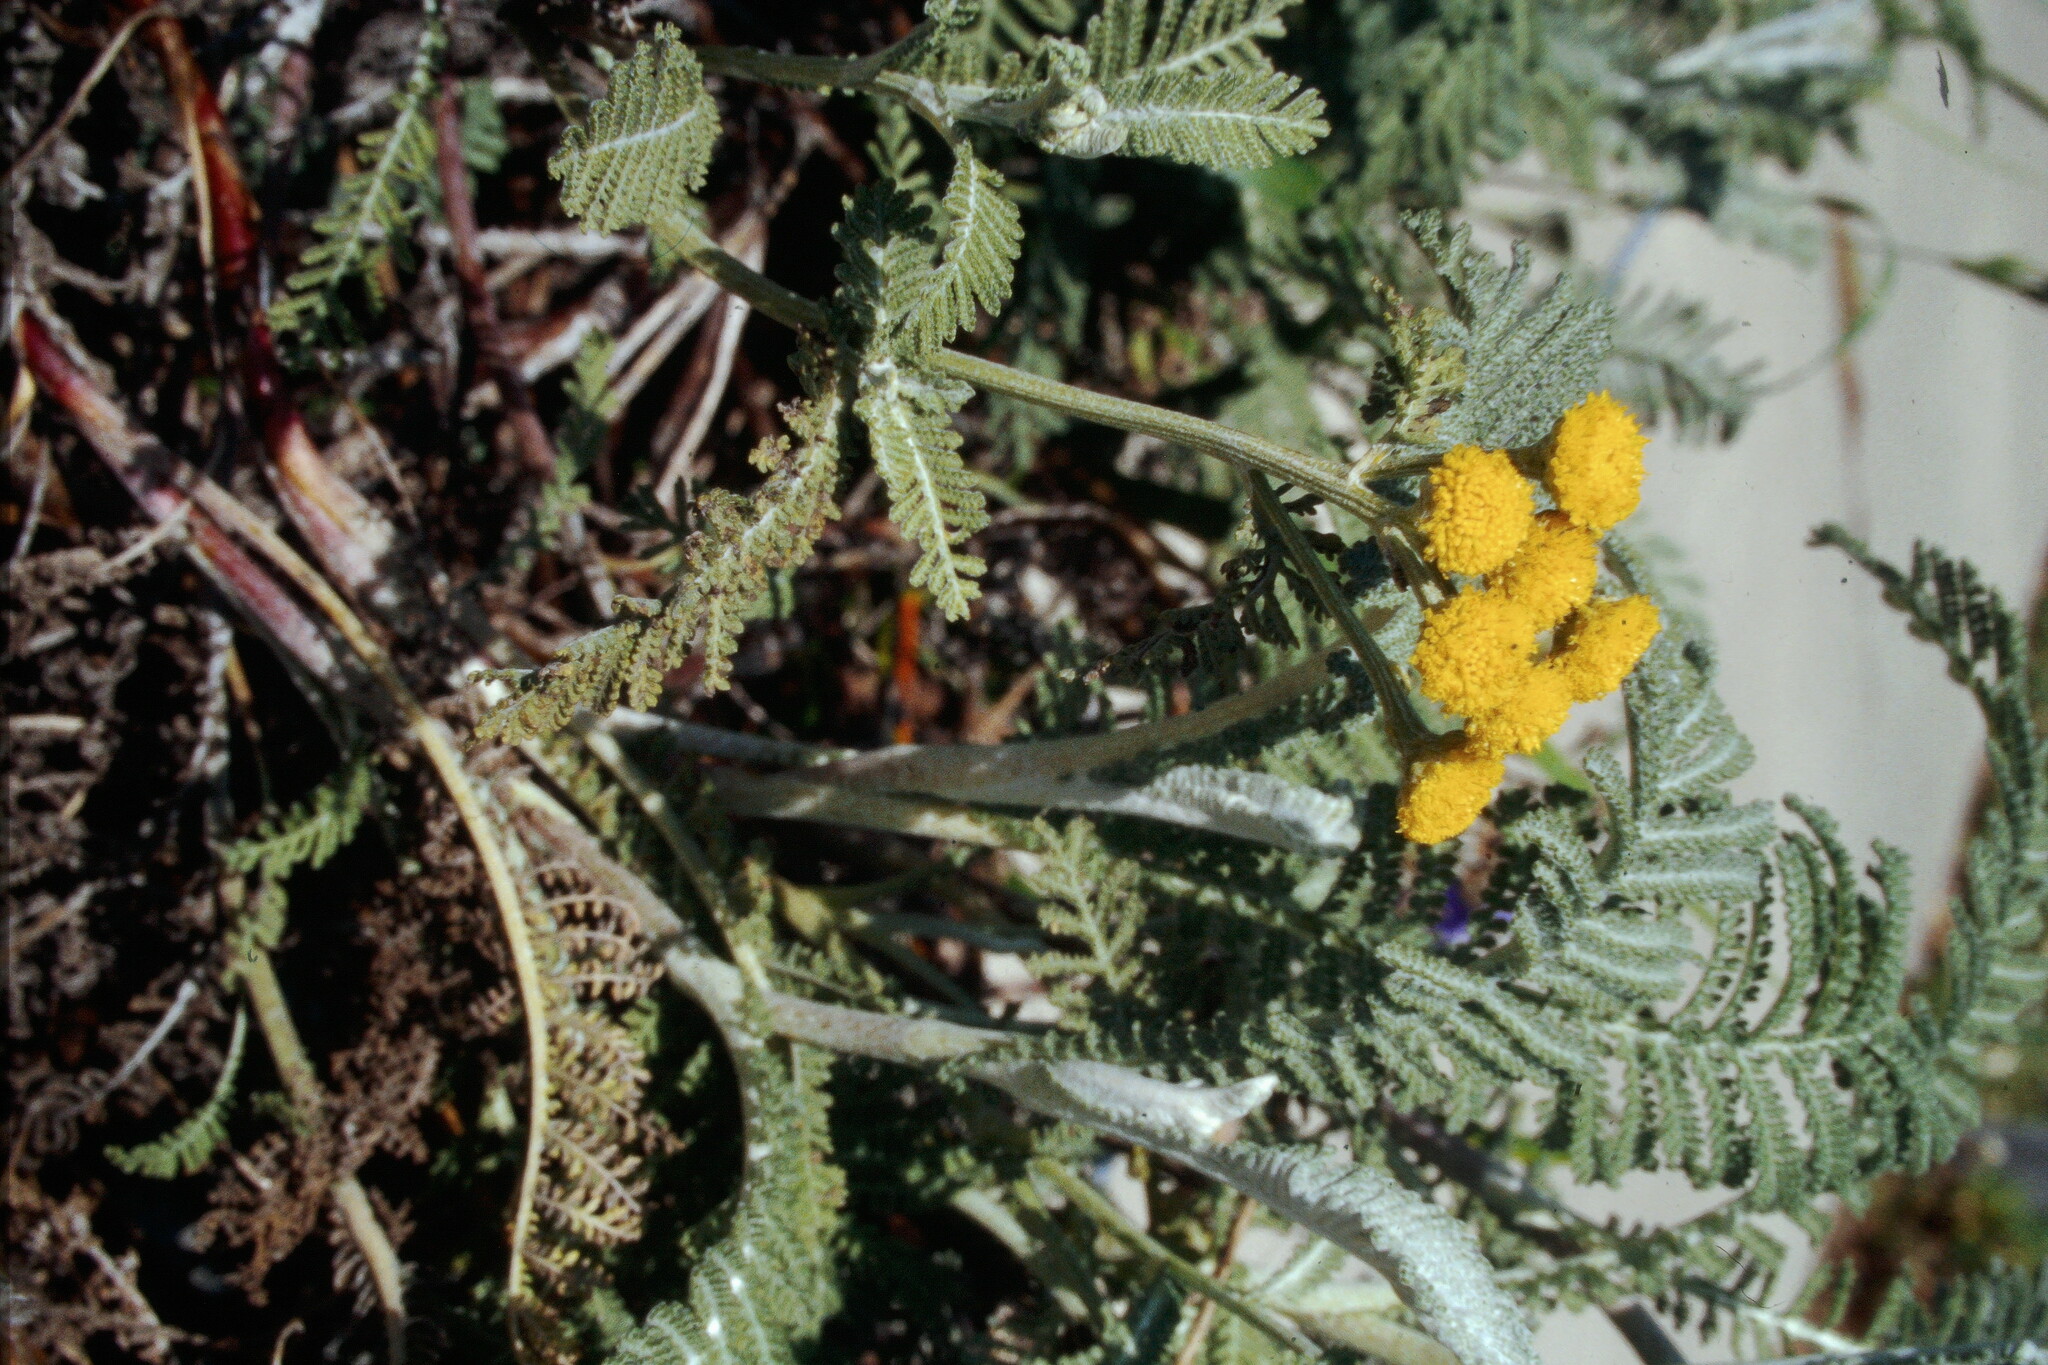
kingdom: Plantae
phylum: Tracheophyta
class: Magnoliopsida
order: Asterales
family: Asteraceae
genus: Tanacetum
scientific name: Tanacetum bipinnatum
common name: Dwarf tansy
